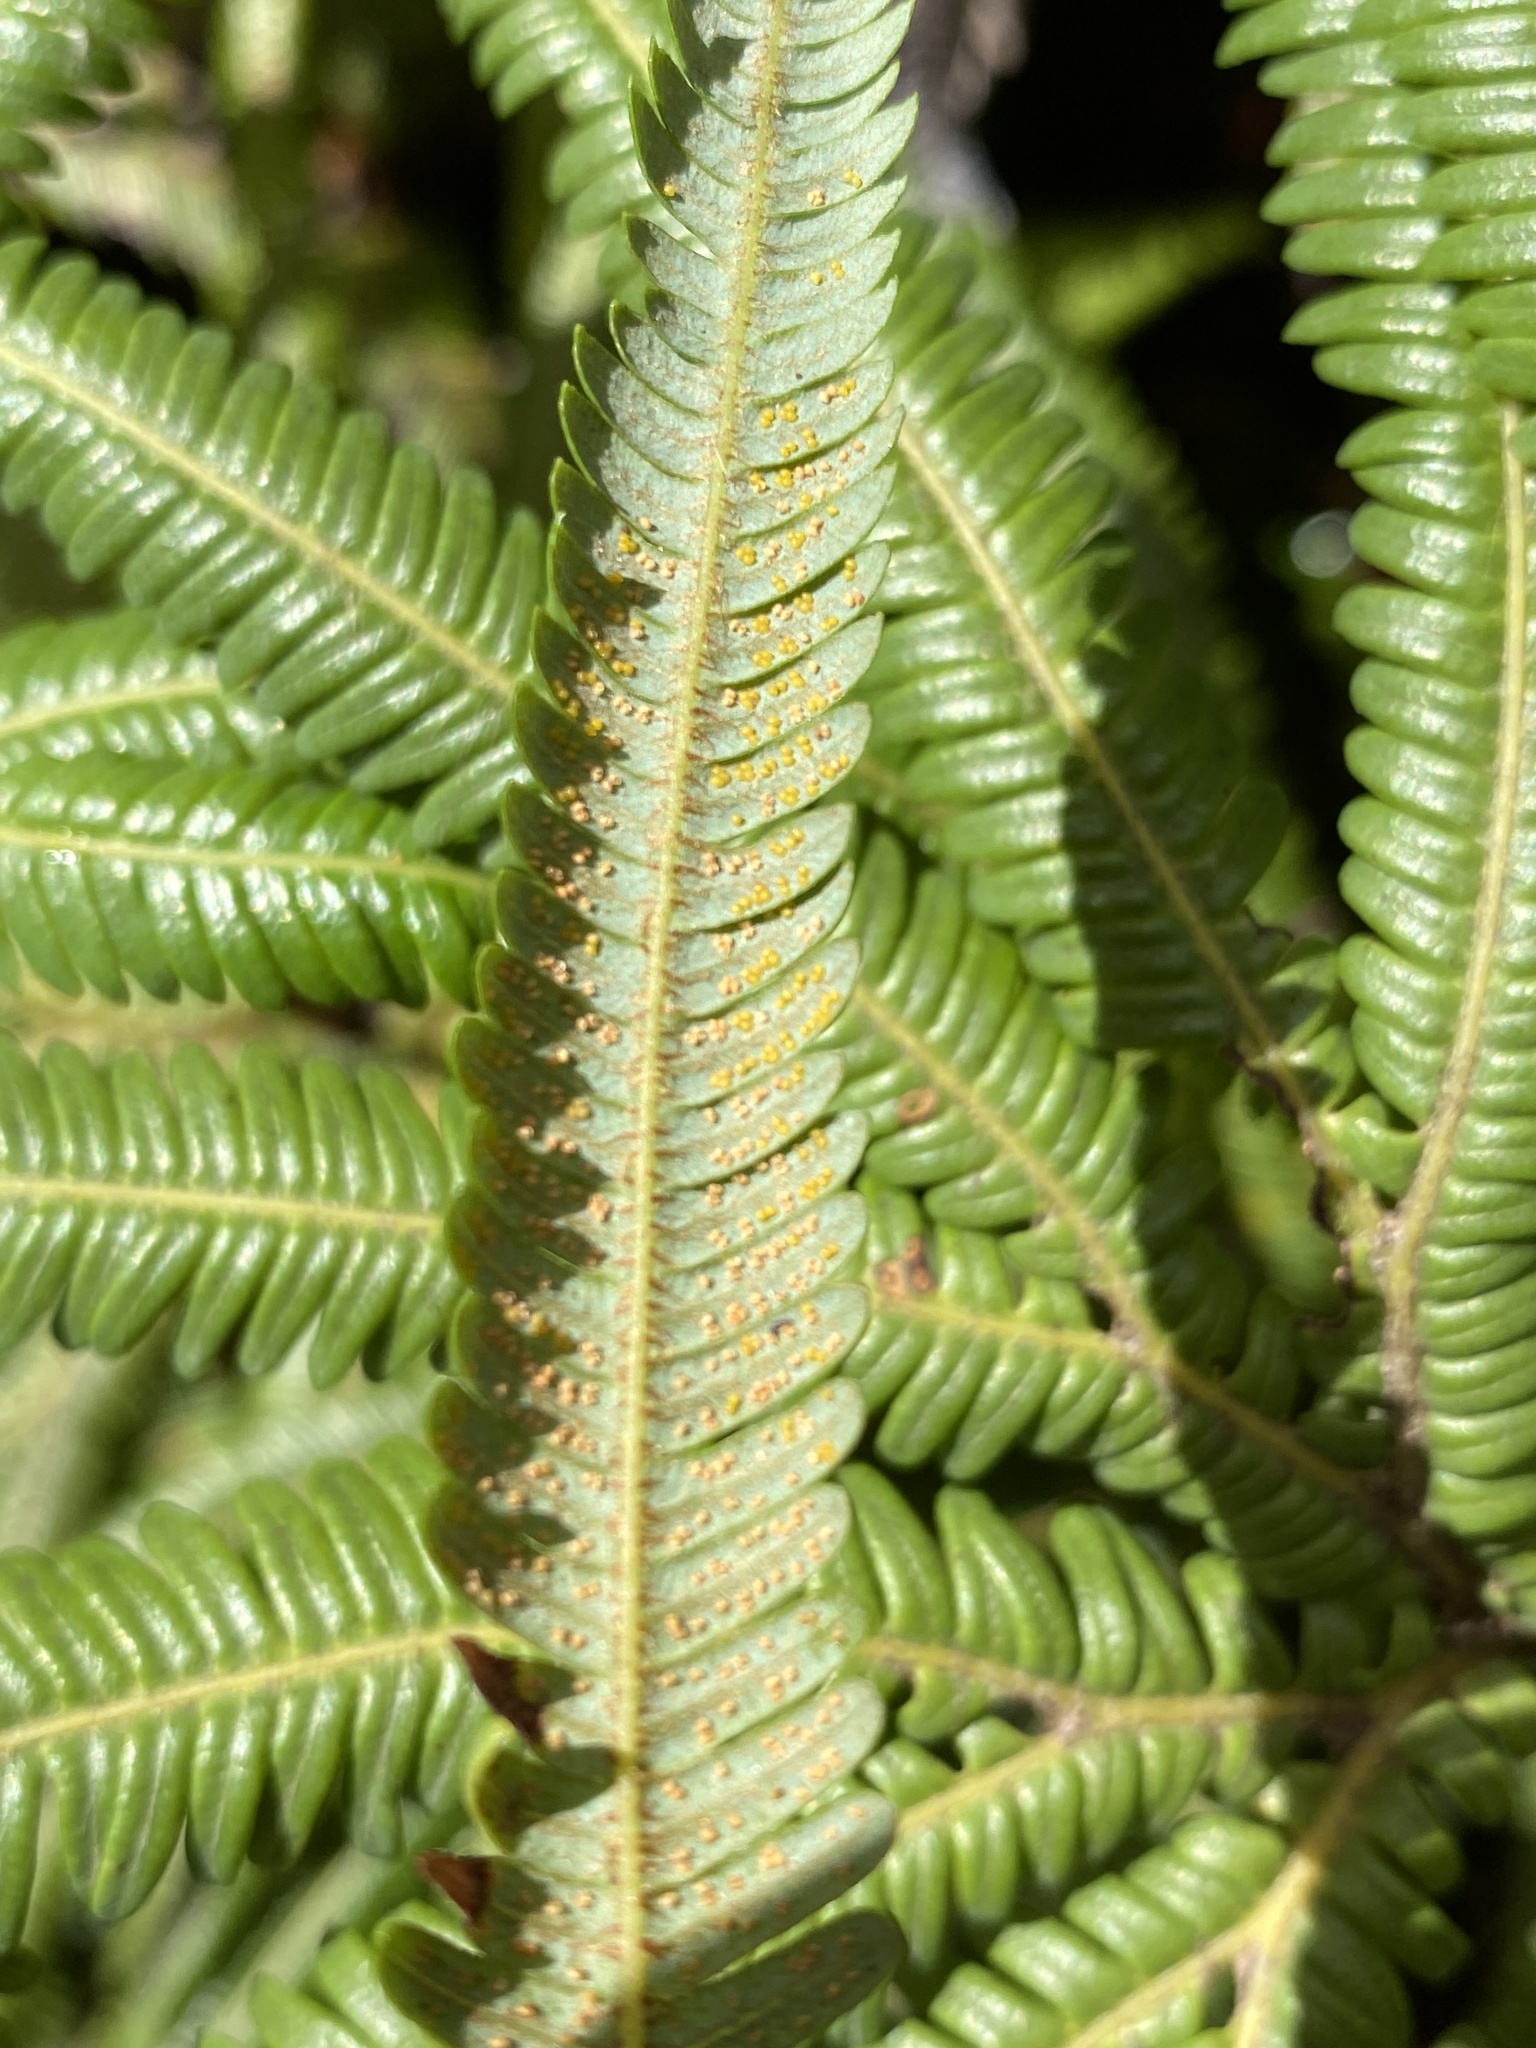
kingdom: Plantae
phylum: Tracheophyta
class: Polypodiopsida
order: Gleicheniales
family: Gleicheniaceae
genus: Sticherus
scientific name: Sticherus cunninghamii
